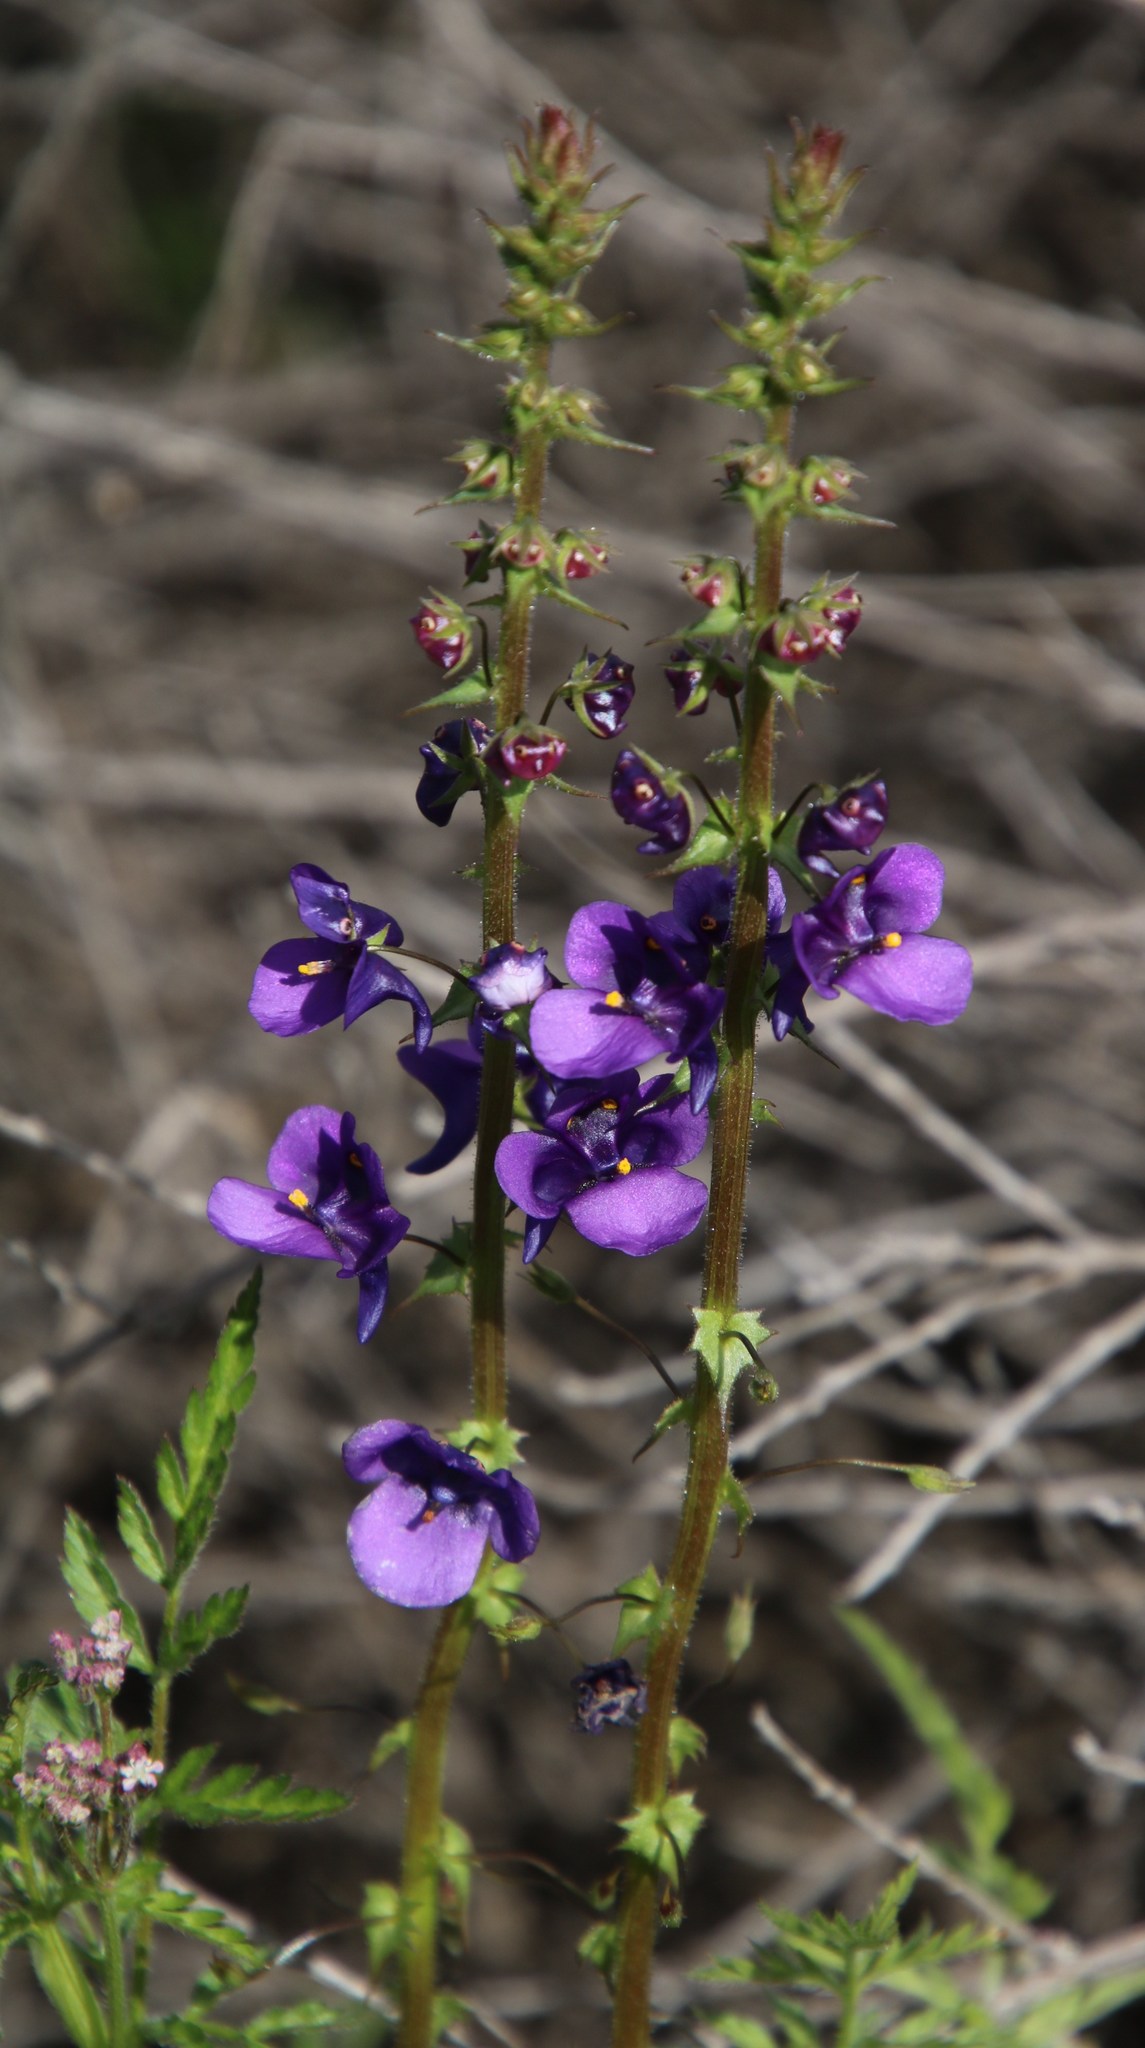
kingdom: Plantae
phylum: Tracheophyta
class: Magnoliopsida
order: Lamiales
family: Scrophulariaceae
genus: Diascia
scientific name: Diascia veronicoides
